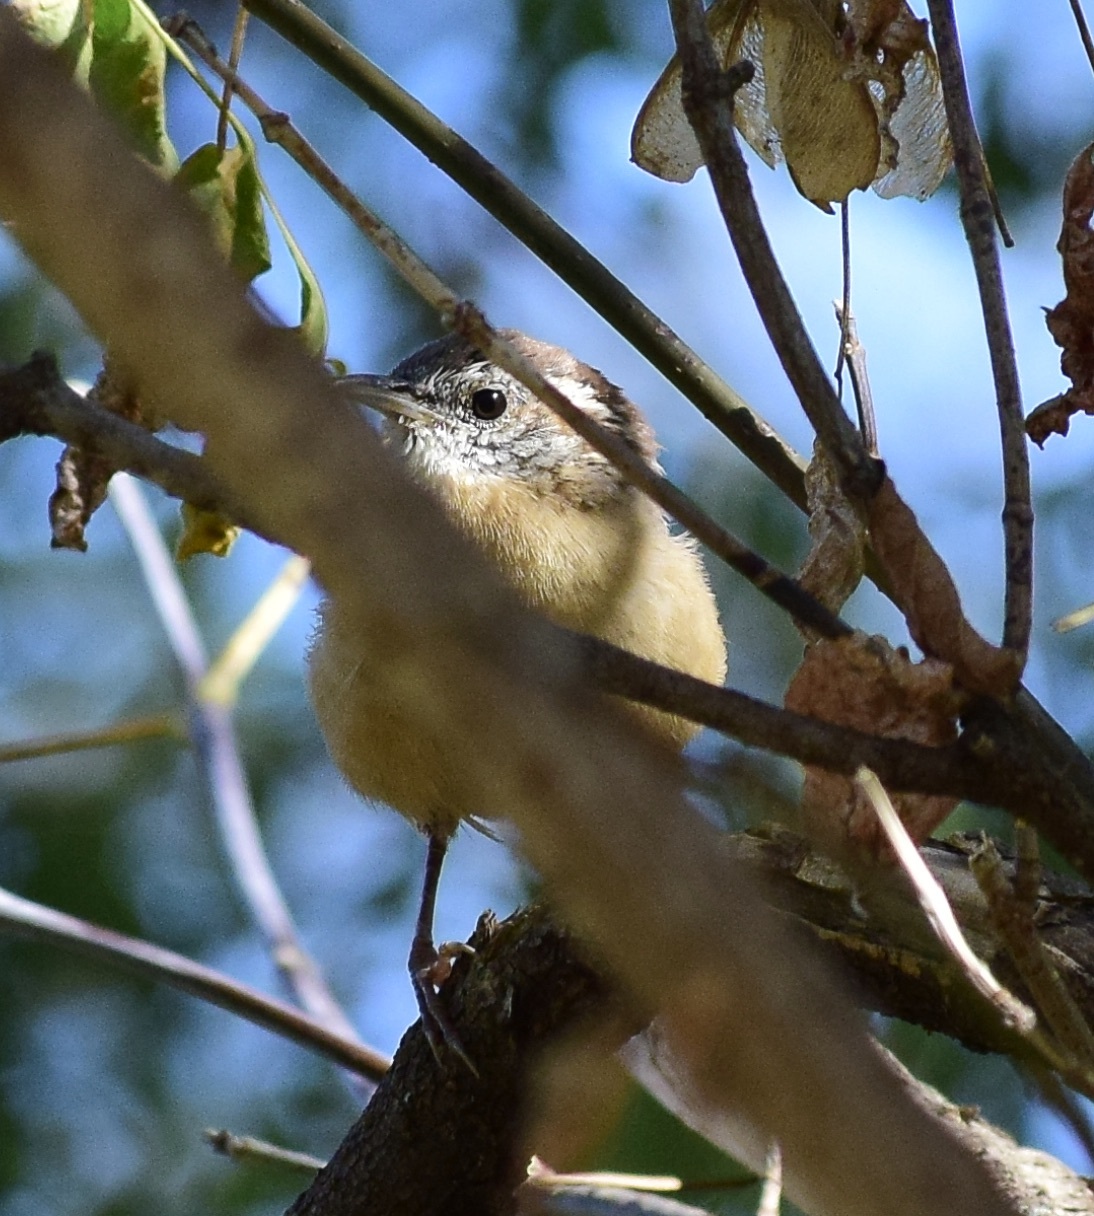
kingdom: Animalia
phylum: Chordata
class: Aves
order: Passeriformes
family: Troglodytidae
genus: Thryothorus
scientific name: Thryothorus ludovicianus
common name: Carolina wren
